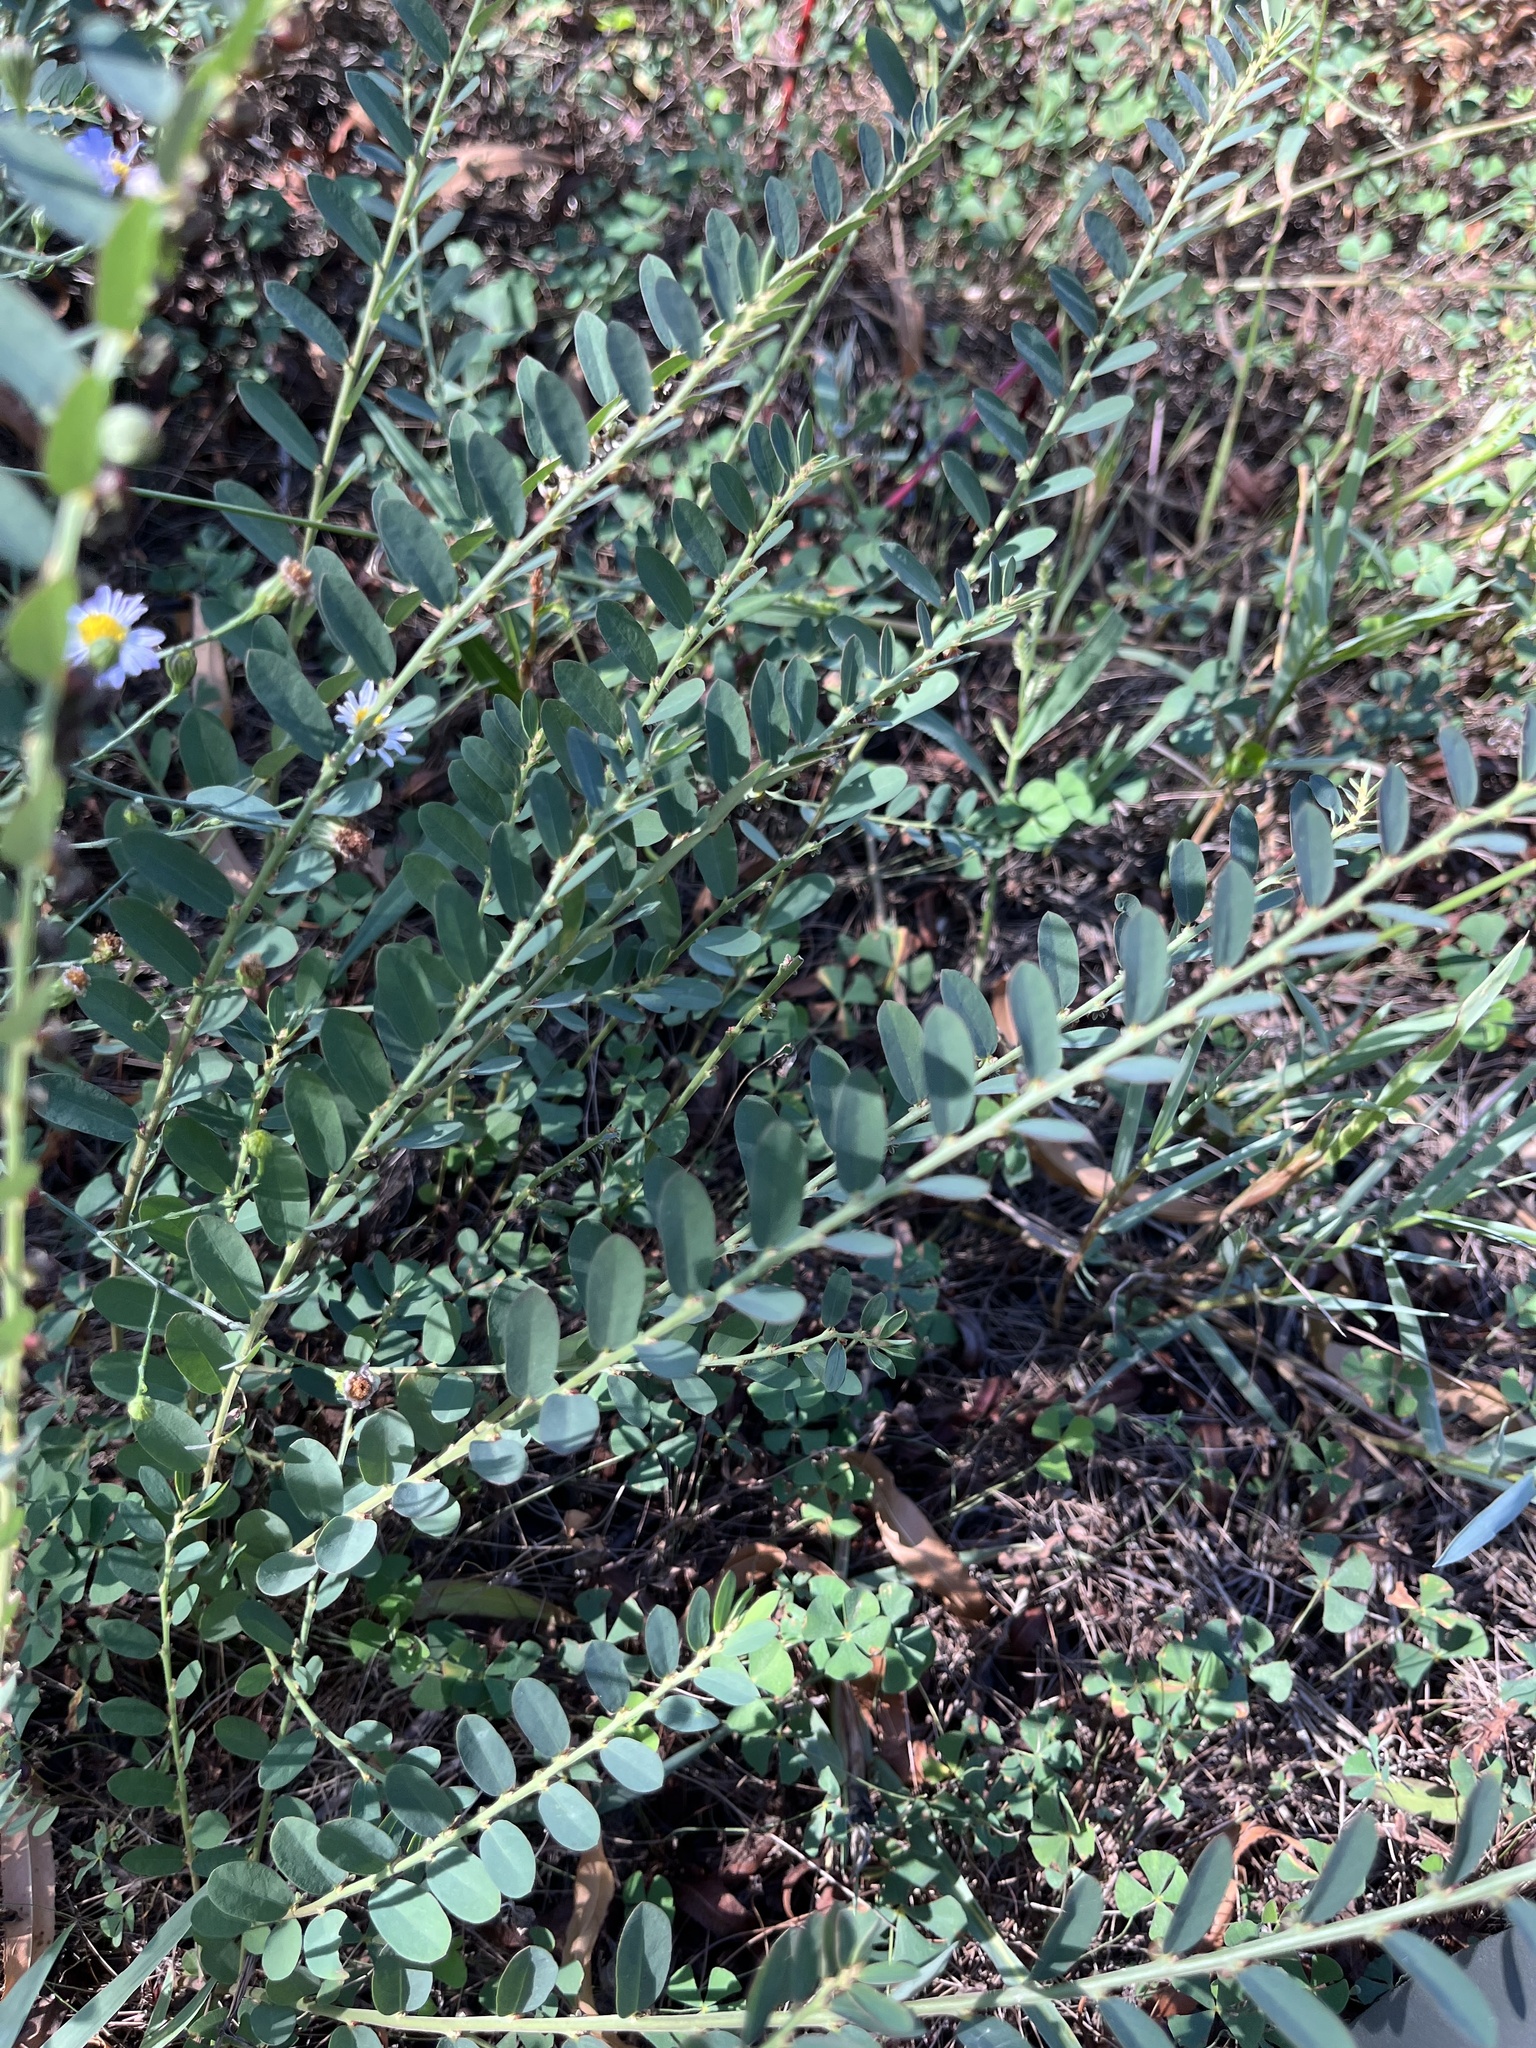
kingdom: Plantae
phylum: Tracheophyta
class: Magnoliopsida
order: Malpighiales
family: Phyllanthaceae
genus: Phyllanthus
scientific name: Phyllanthus evanescens
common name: Birdseed leaf-flower
